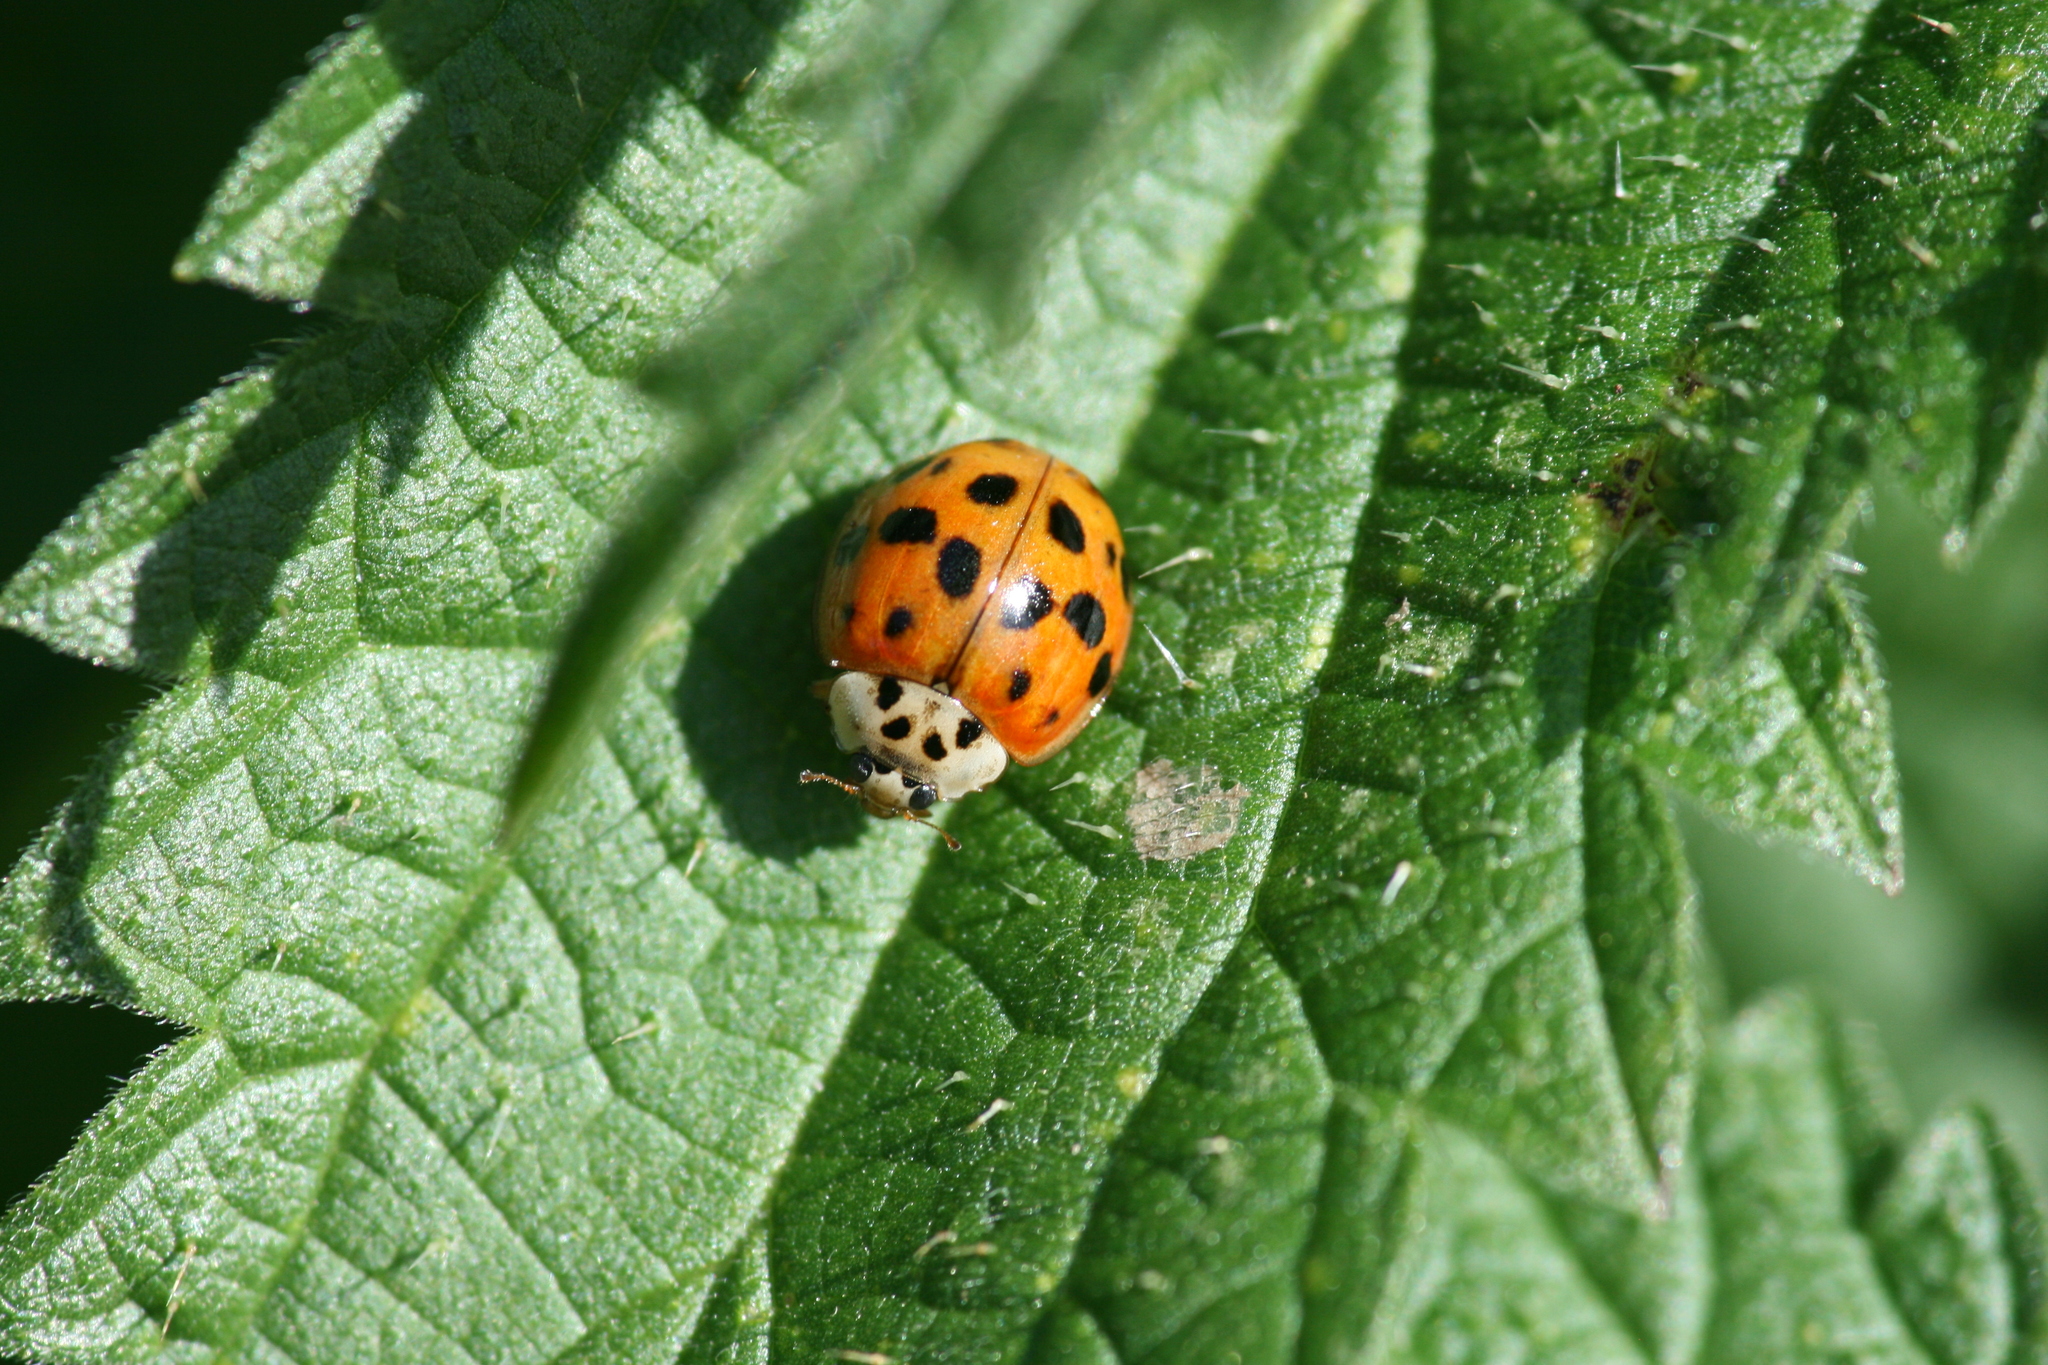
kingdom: Animalia
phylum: Arthropoda
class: Insecta
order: Coleoptera
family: Coccinellidae
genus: Harmonia
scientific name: Harmonia axyridis
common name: Harlequin ladybird
